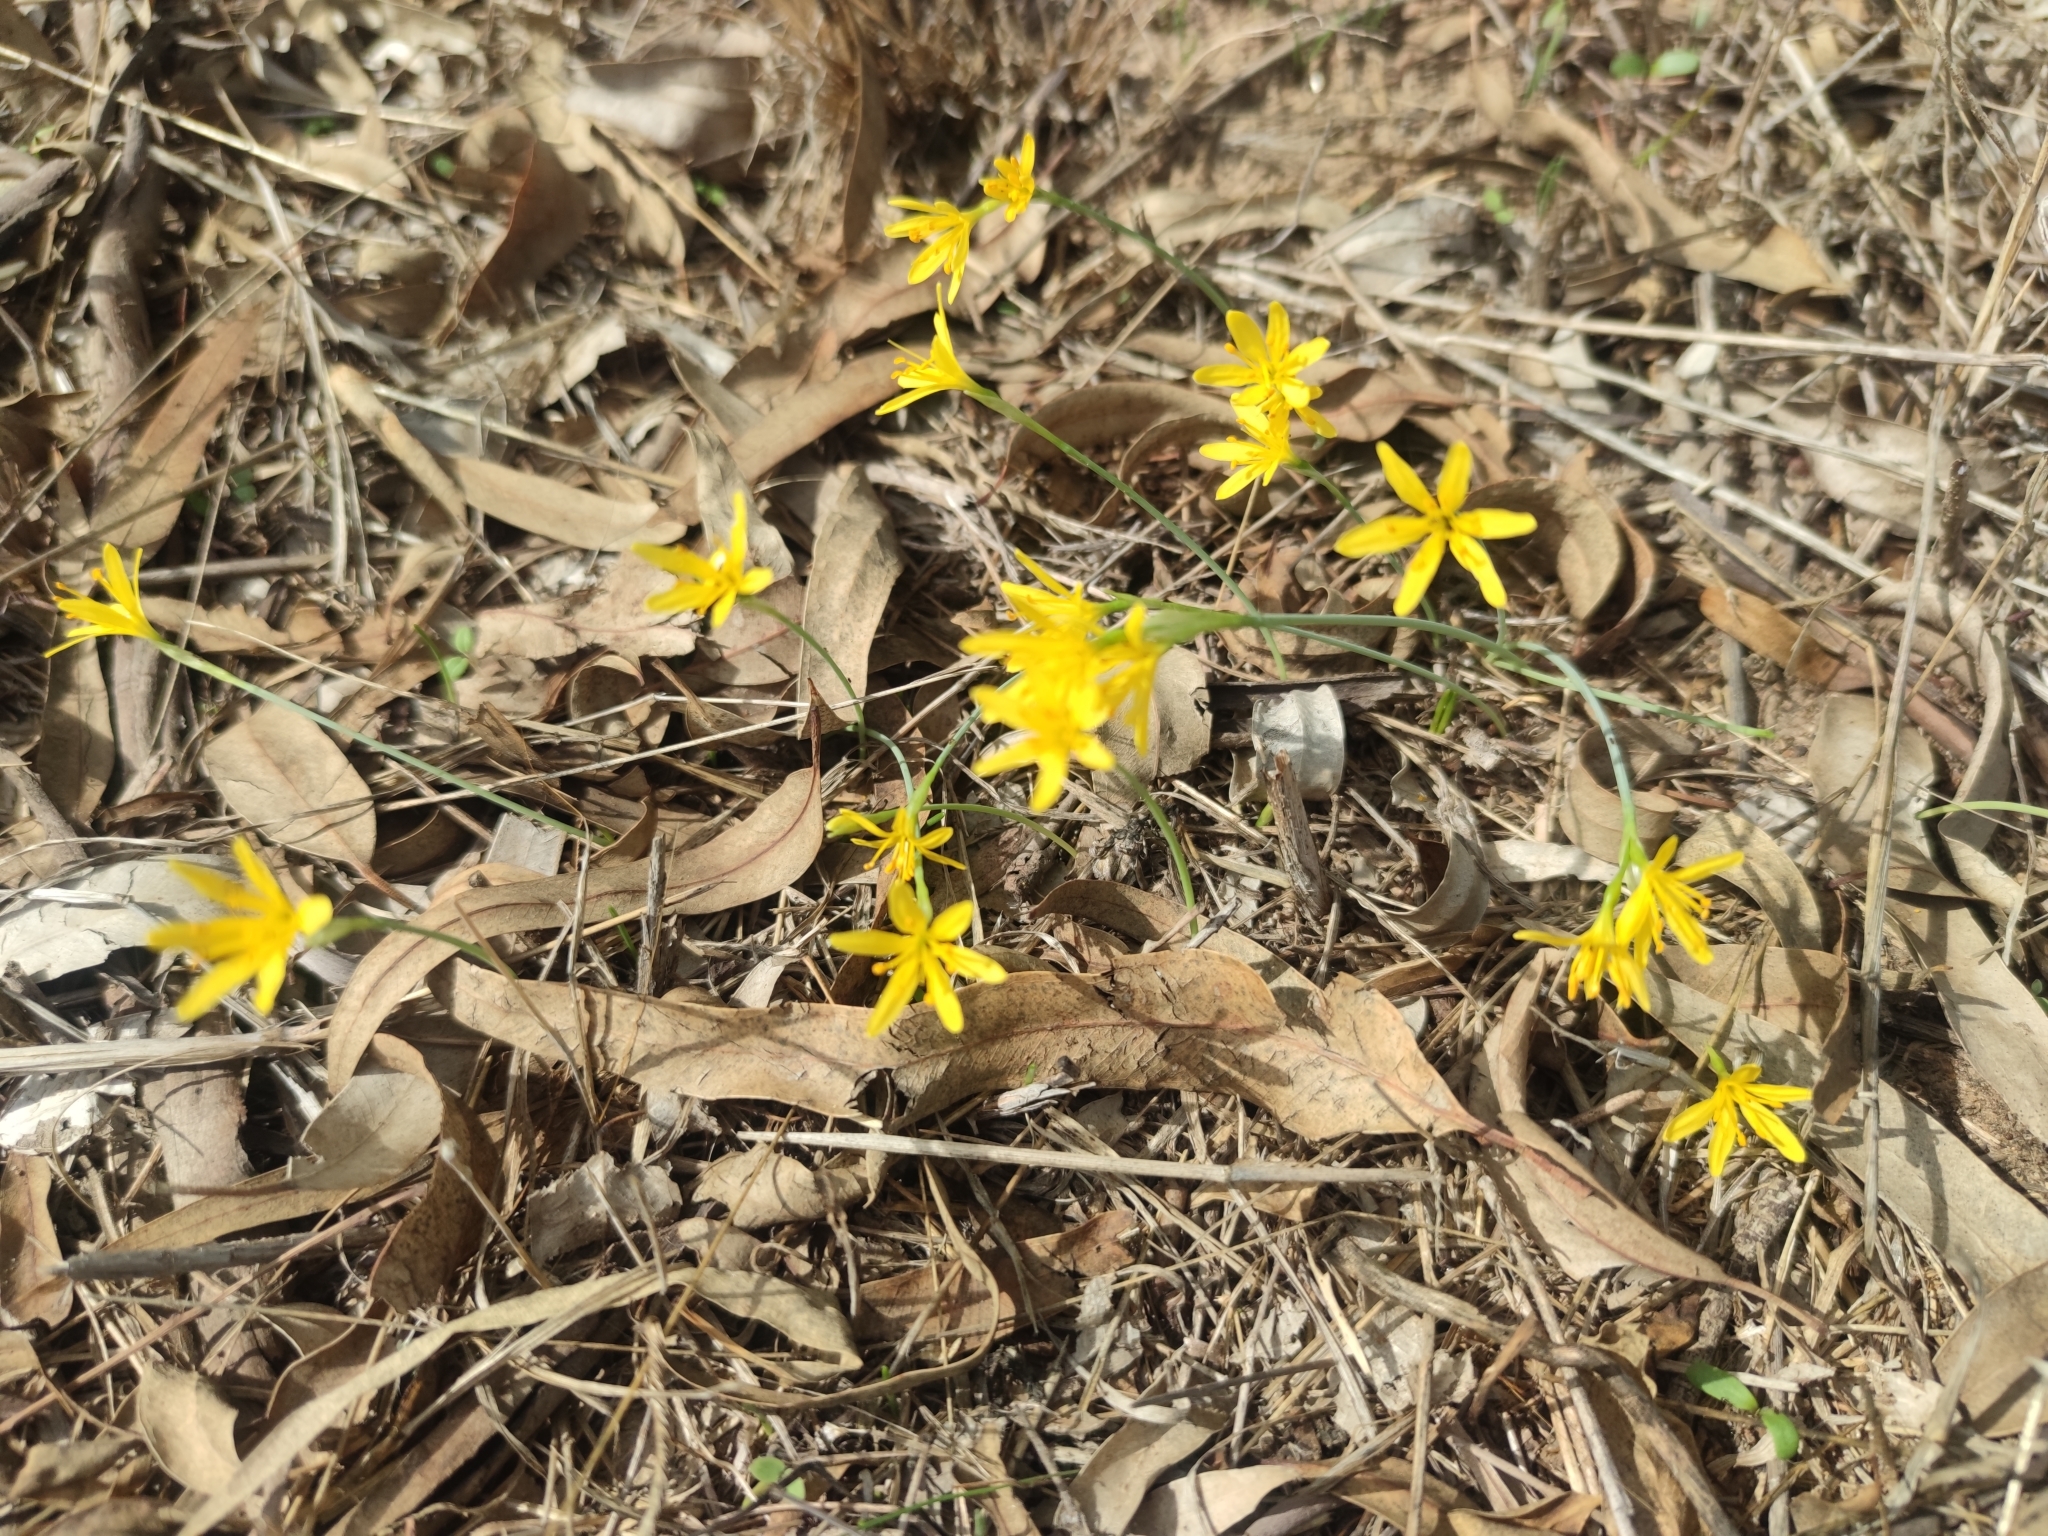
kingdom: Plantae
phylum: Tracheophyta
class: Liliopsida
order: Asparagales
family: Amaryllidaceae
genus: Narcissus
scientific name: Narcissus cavanillesii
